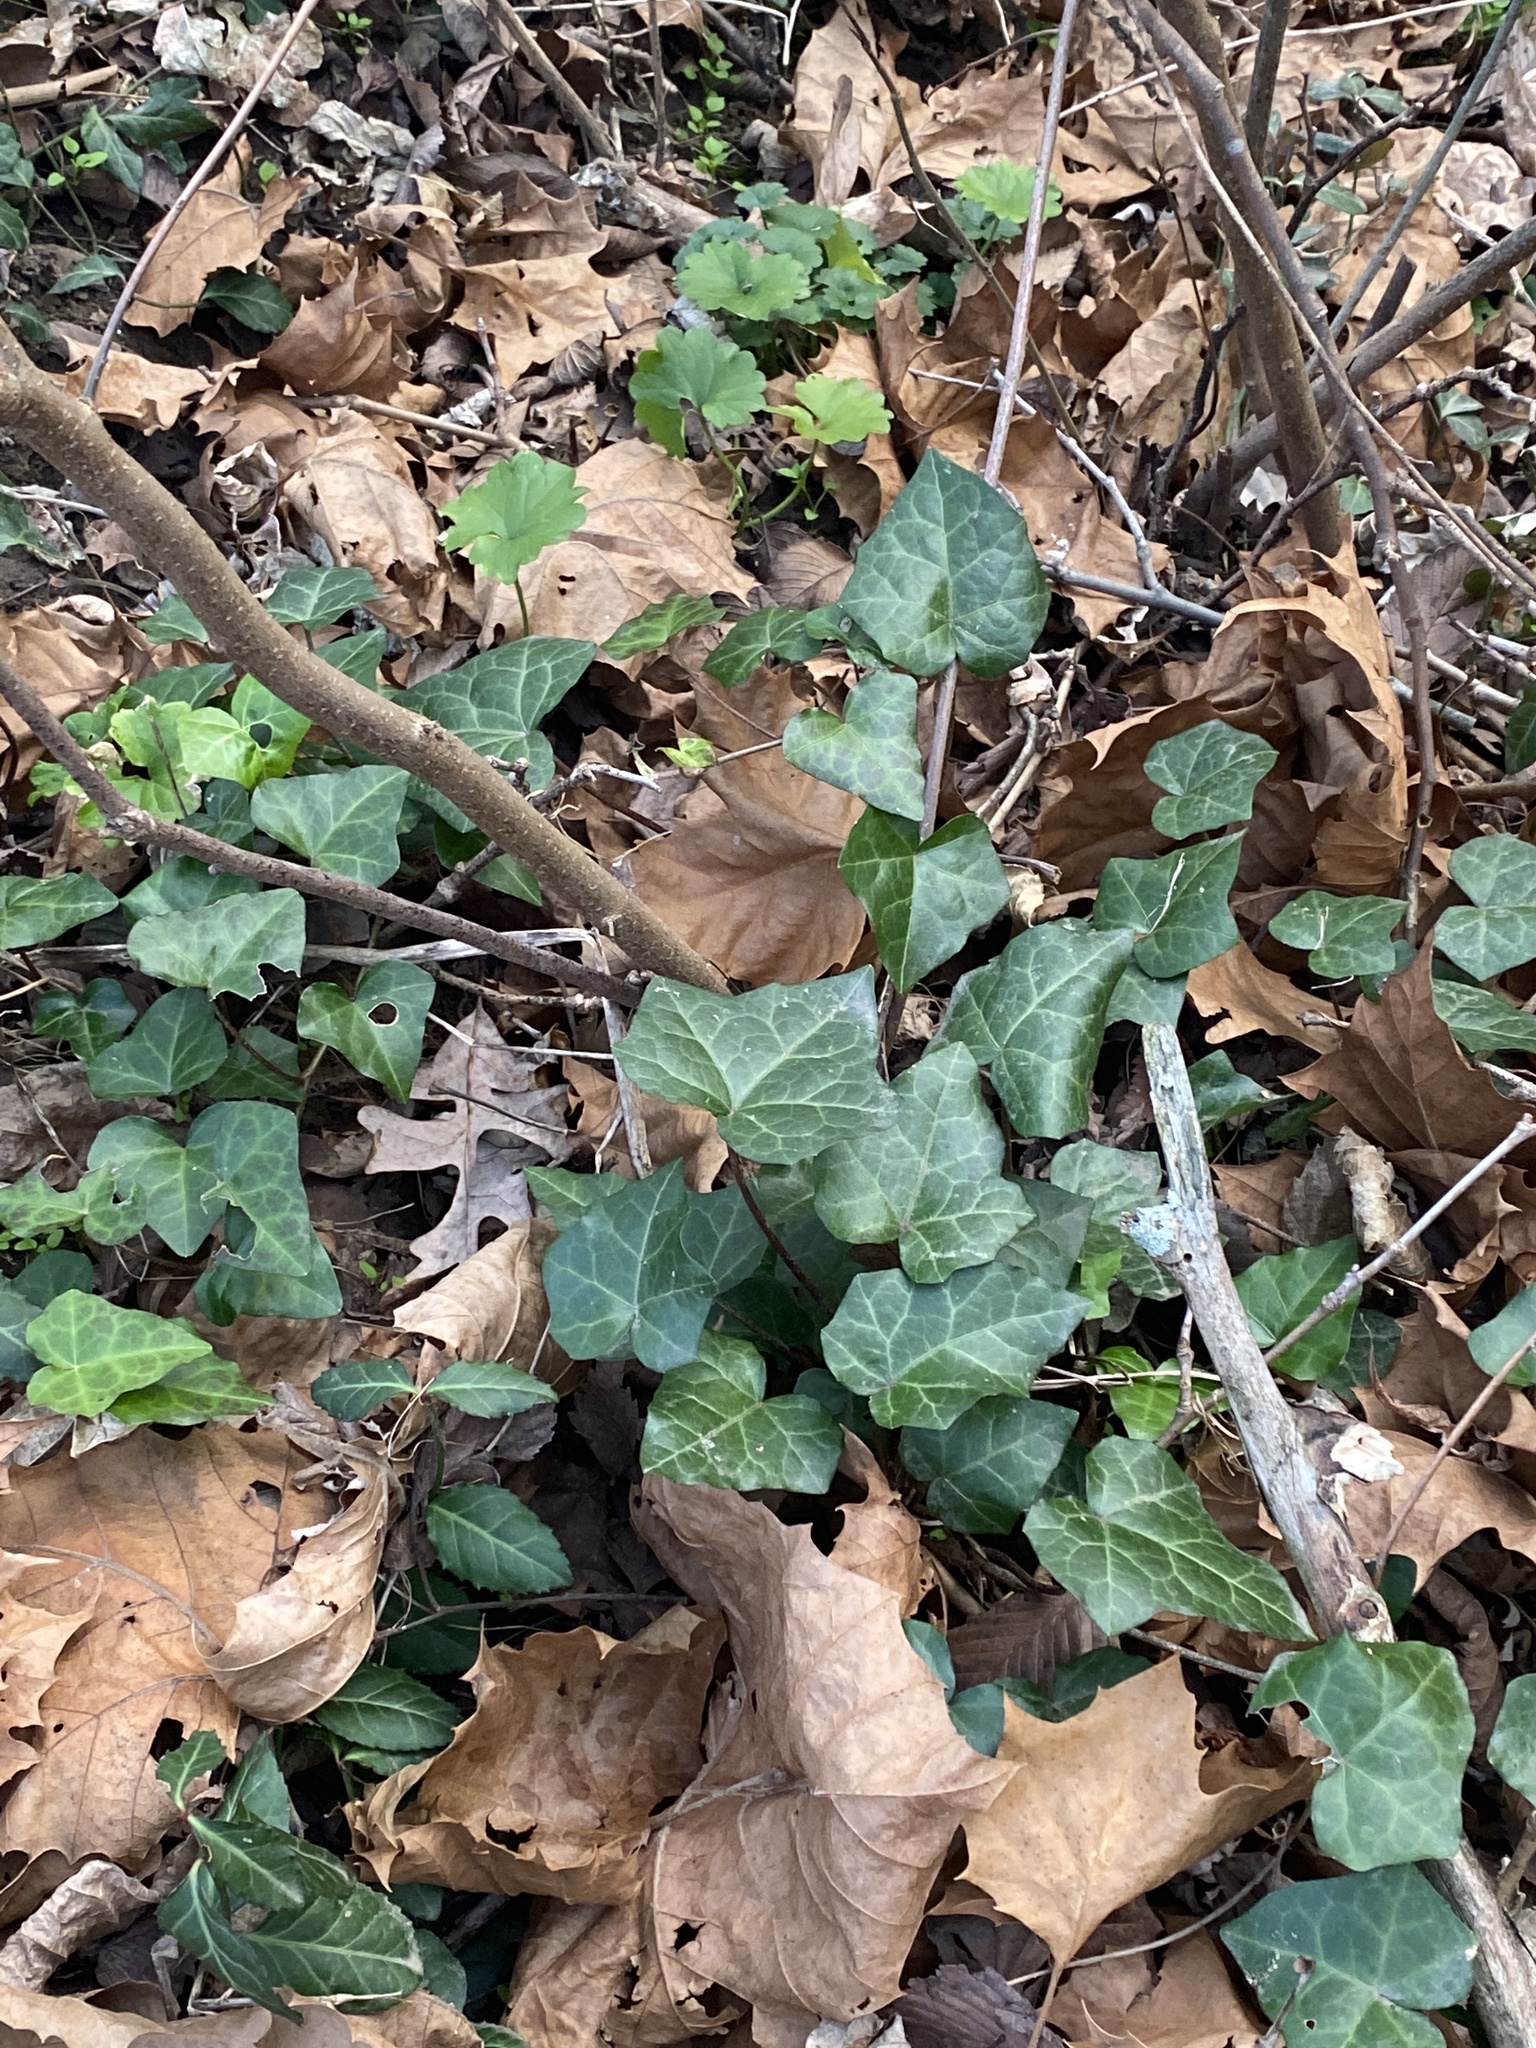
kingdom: Plantae
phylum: Tracheophyta
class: Magnoliopsida
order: Apiales
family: Araliaceae
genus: Hedera
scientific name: Hedera helix
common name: Ivy
